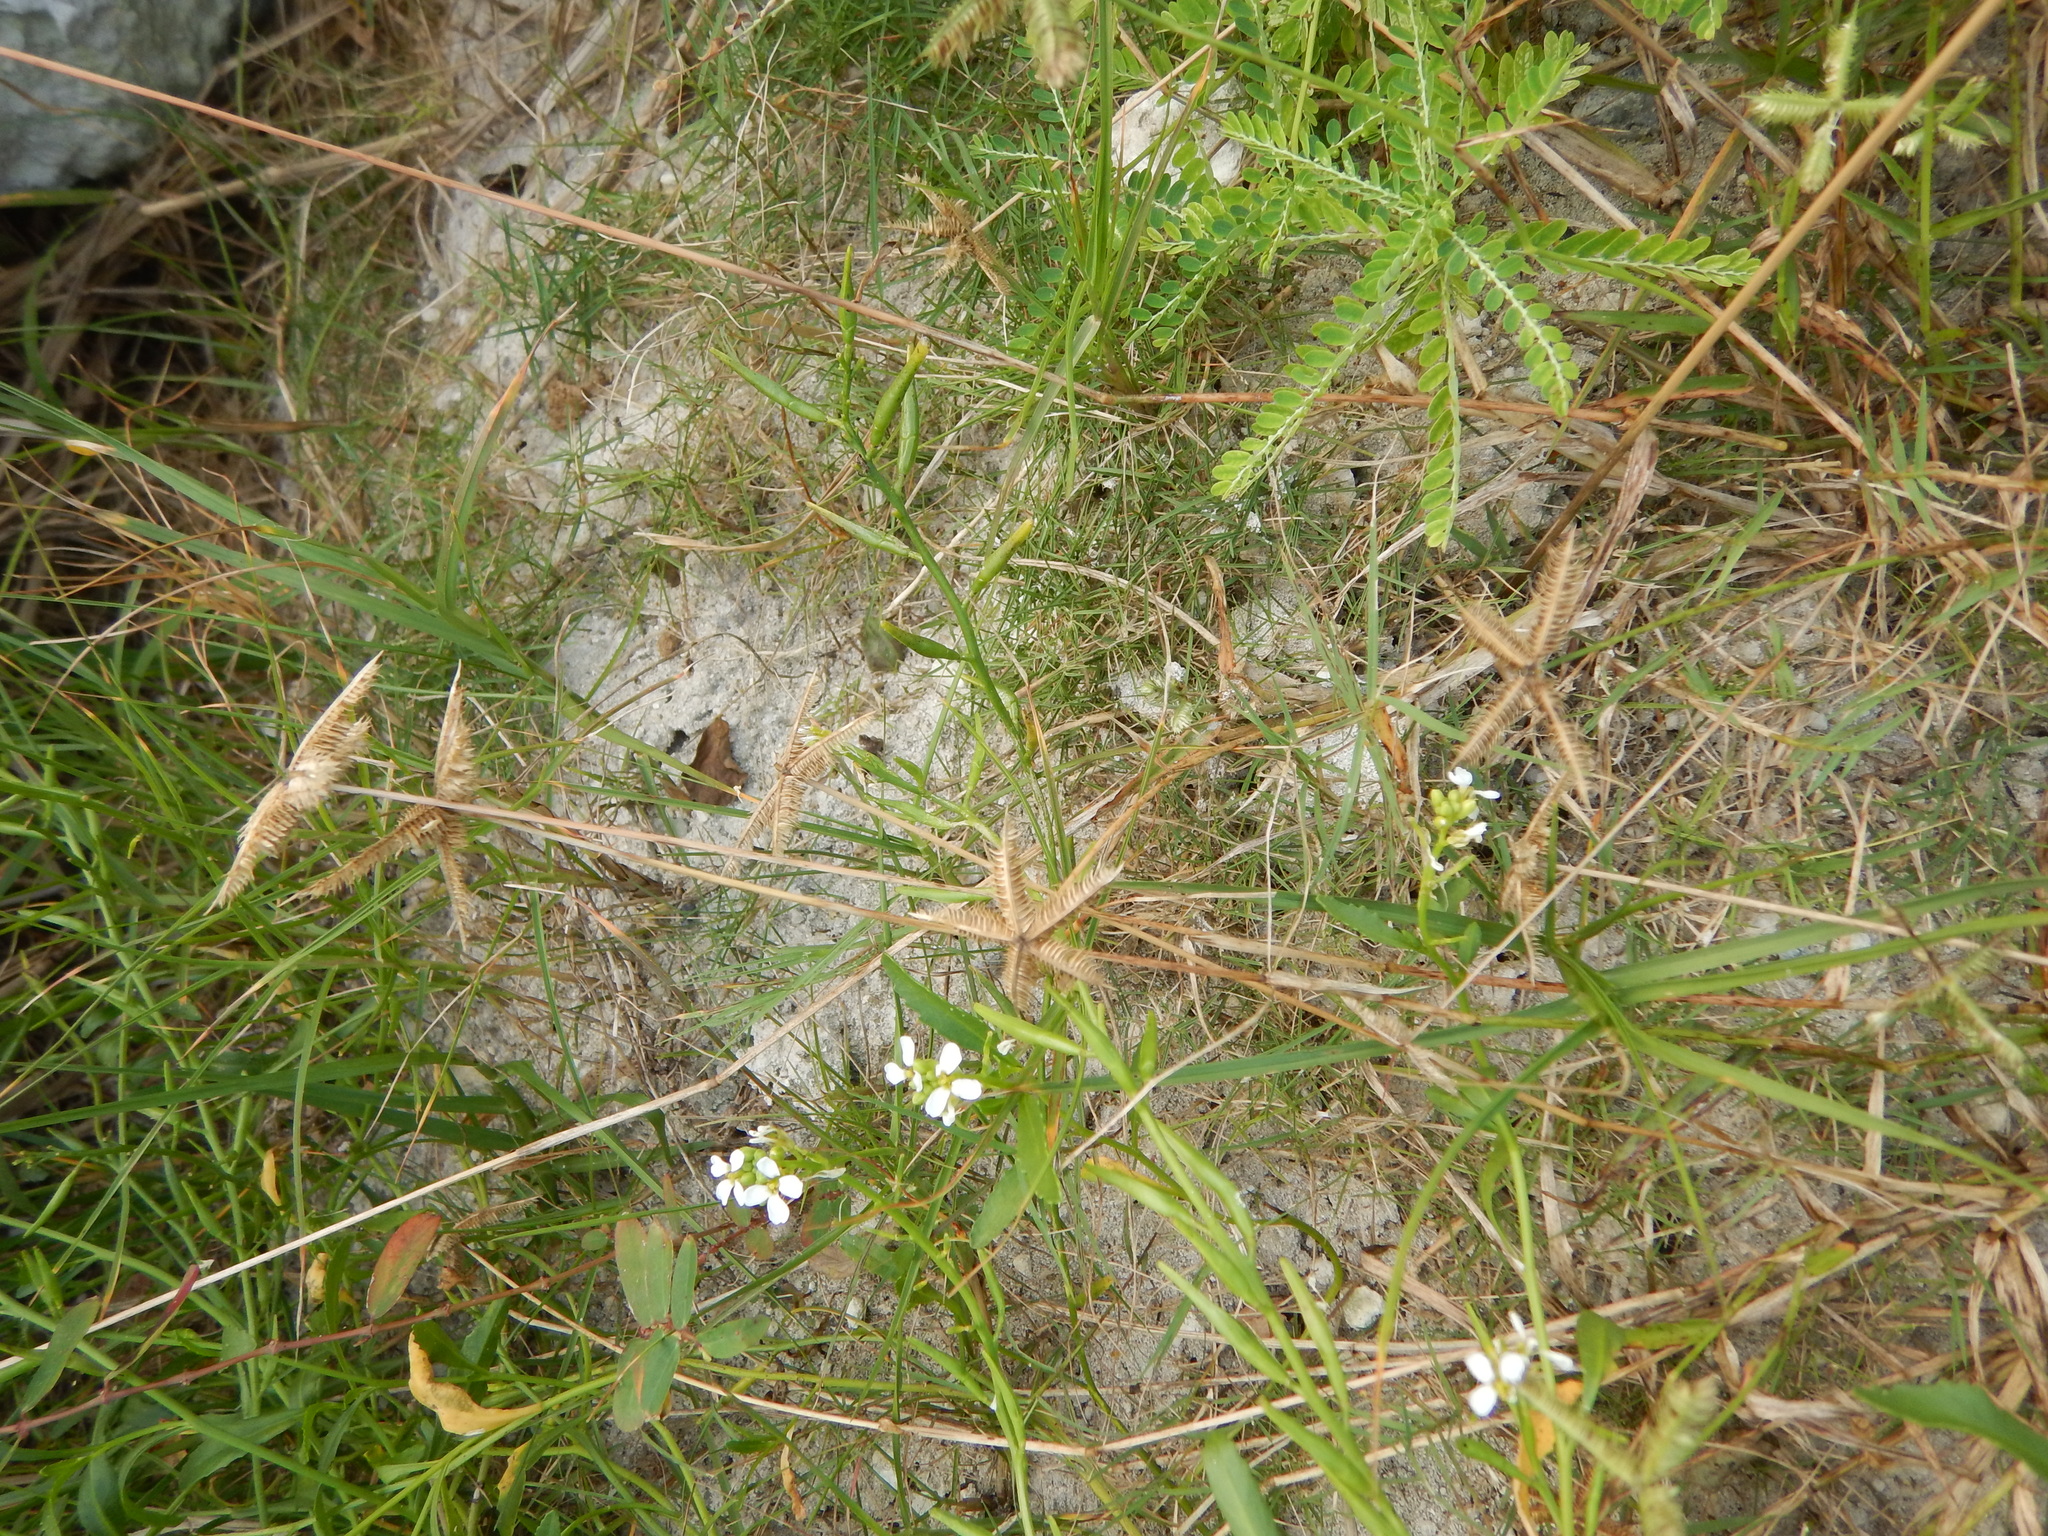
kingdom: Plantae
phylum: Tracheophyta
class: Liliopsida
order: Poales
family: Poaceae
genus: Dactyloctenium
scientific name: Dactyloctenium aegyptium
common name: Egyptian grass
